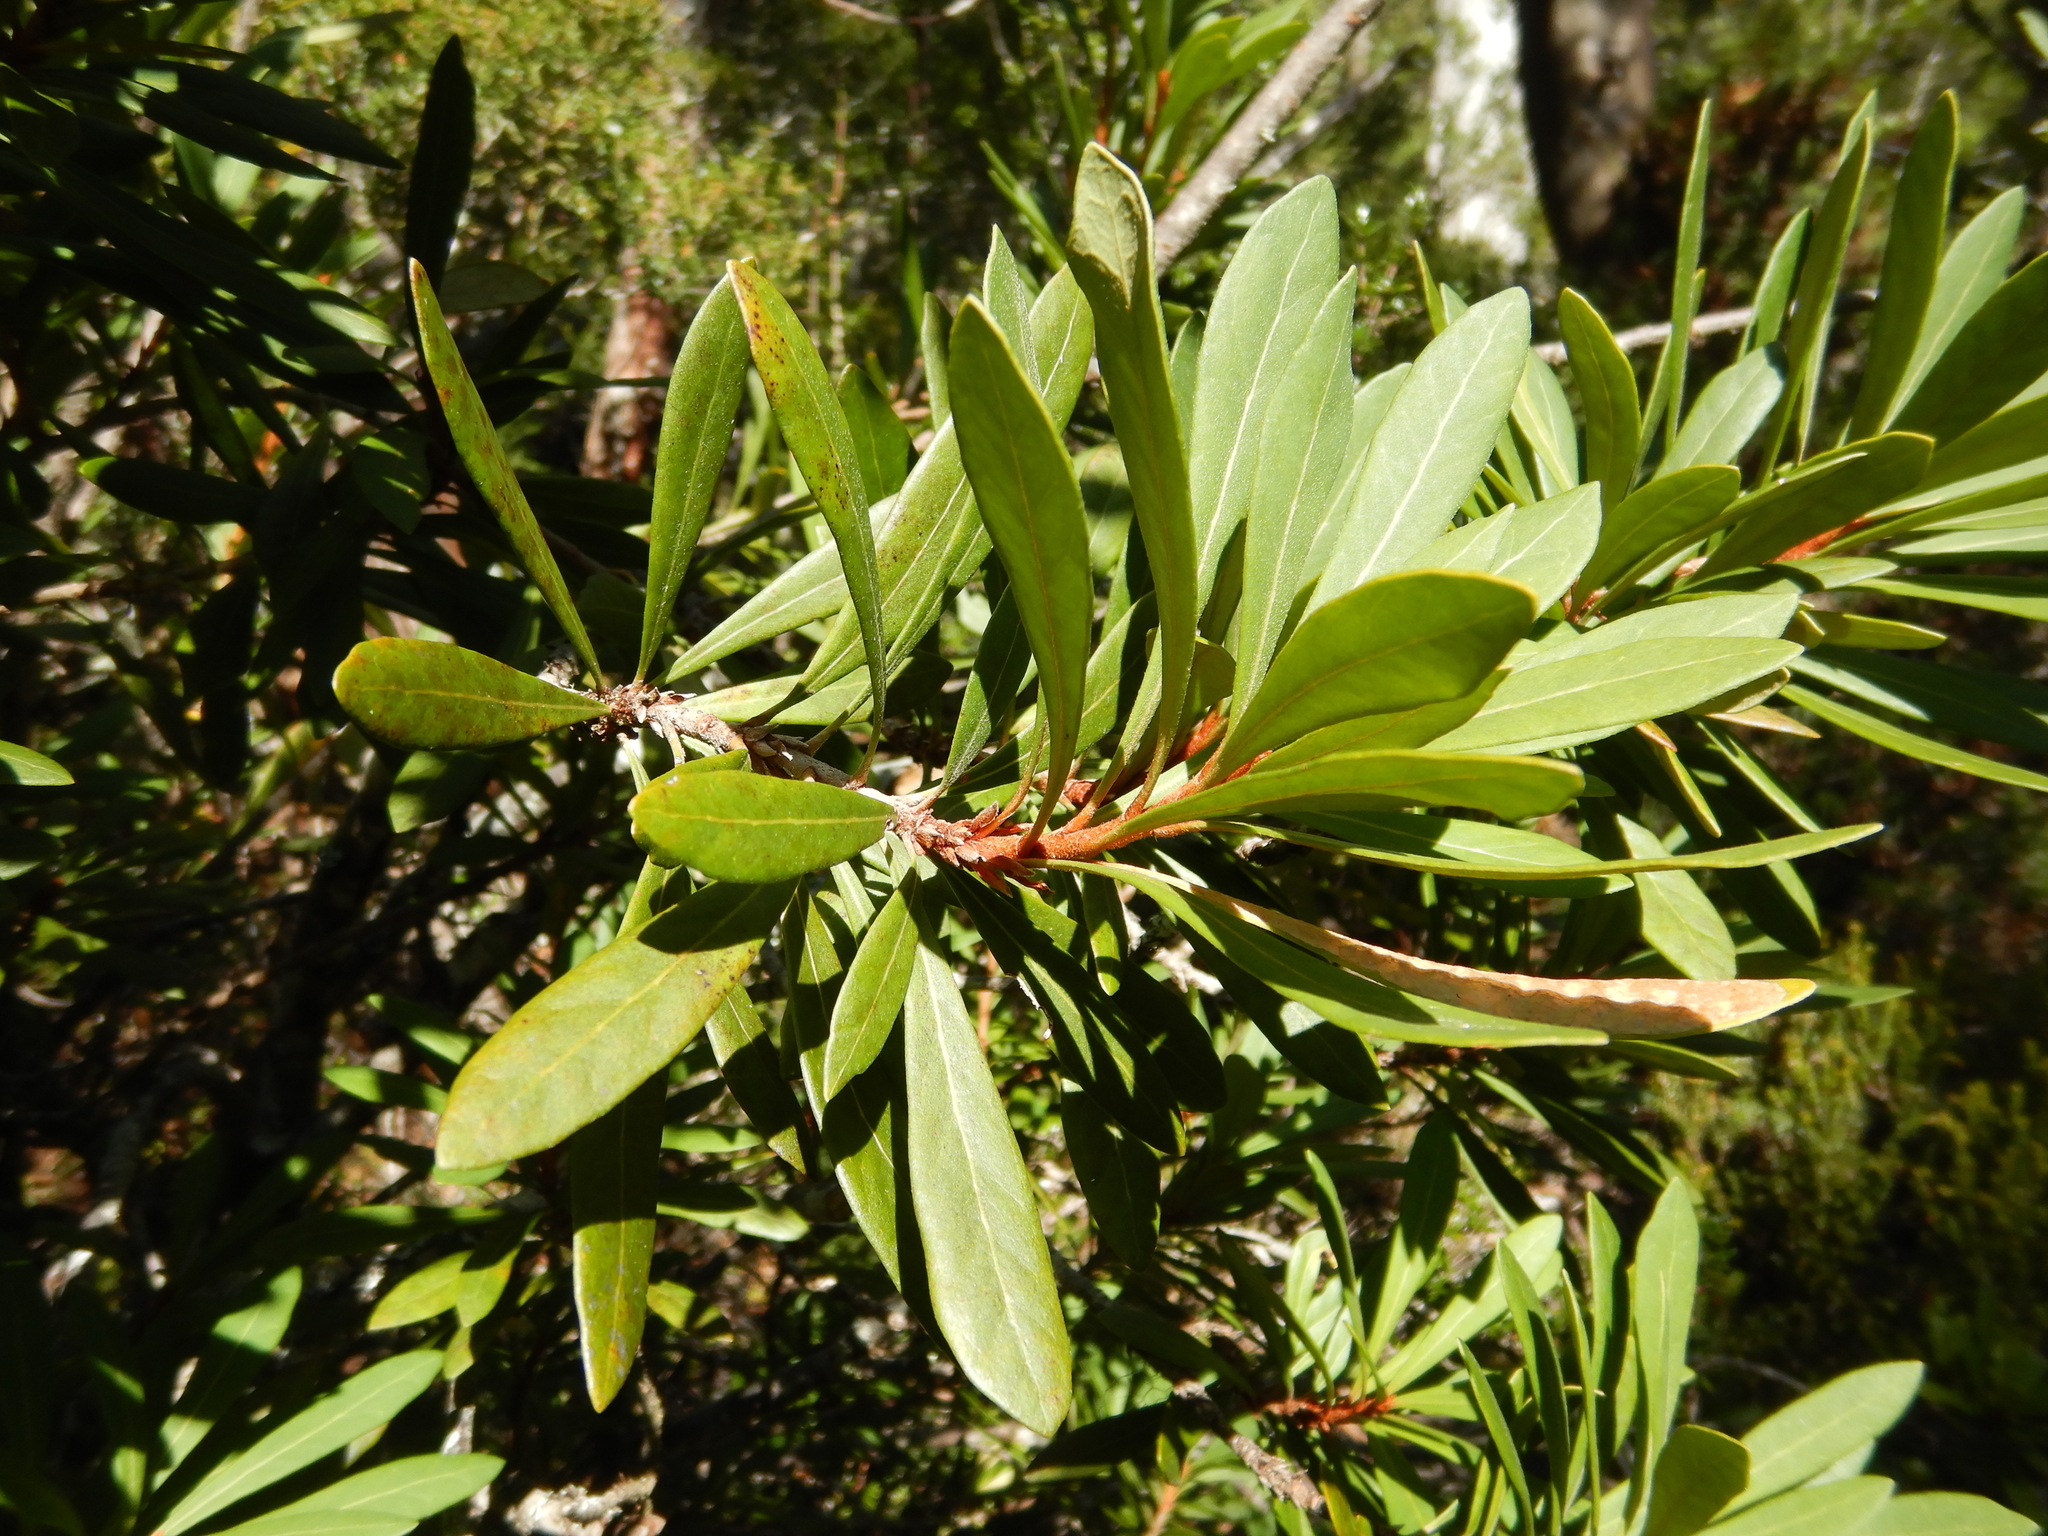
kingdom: Plantae
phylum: Tracheophyta
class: Magnoliopsida
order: Proteales
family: Proteaceae
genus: Telopea
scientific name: Telopea truncata
